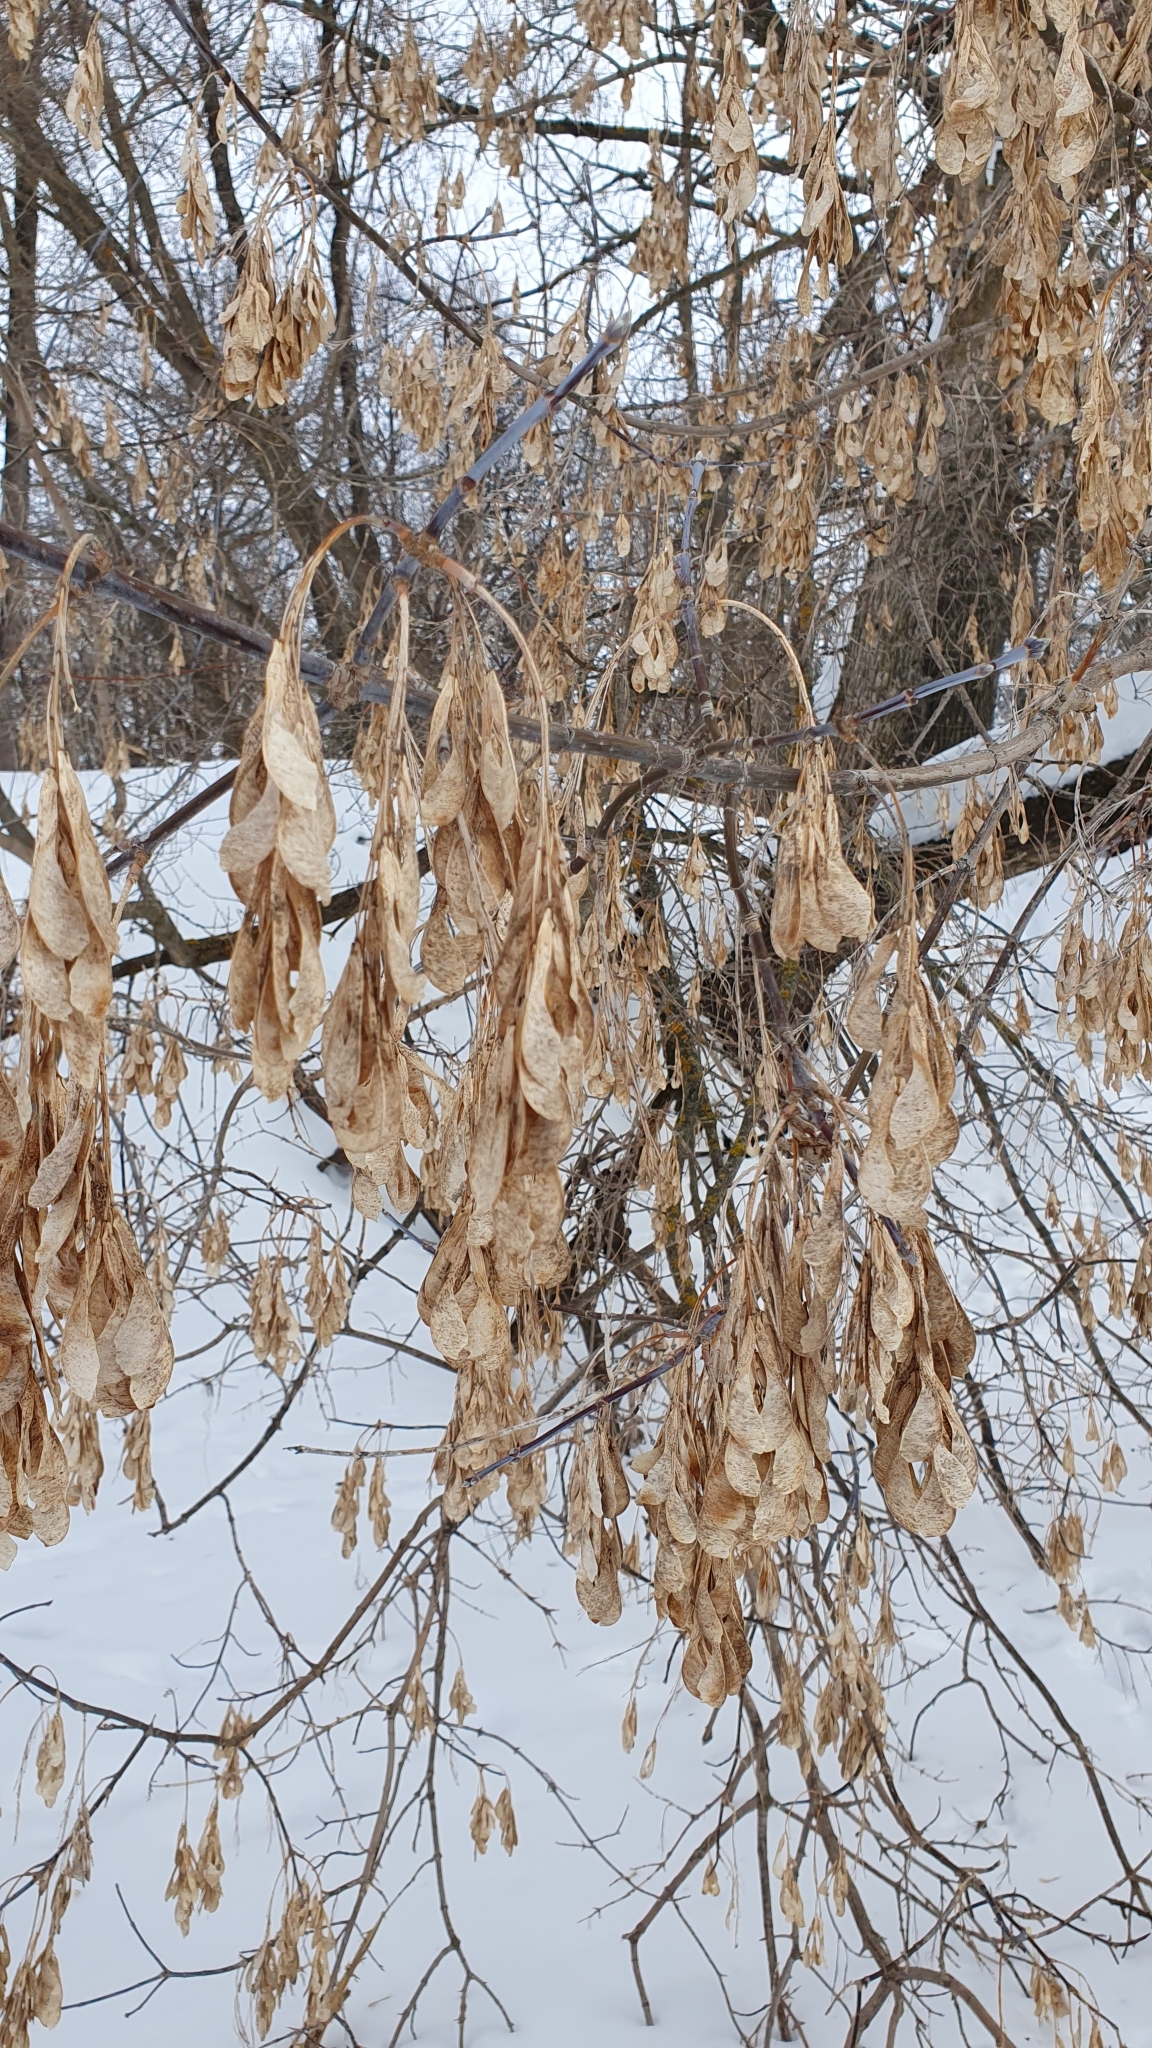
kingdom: Plantae
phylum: Tracheophyta
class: Magnoliopsida
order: Sapindales
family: Sapindaceae
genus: Acer
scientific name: Acer negundo
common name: Ashleaf maple
